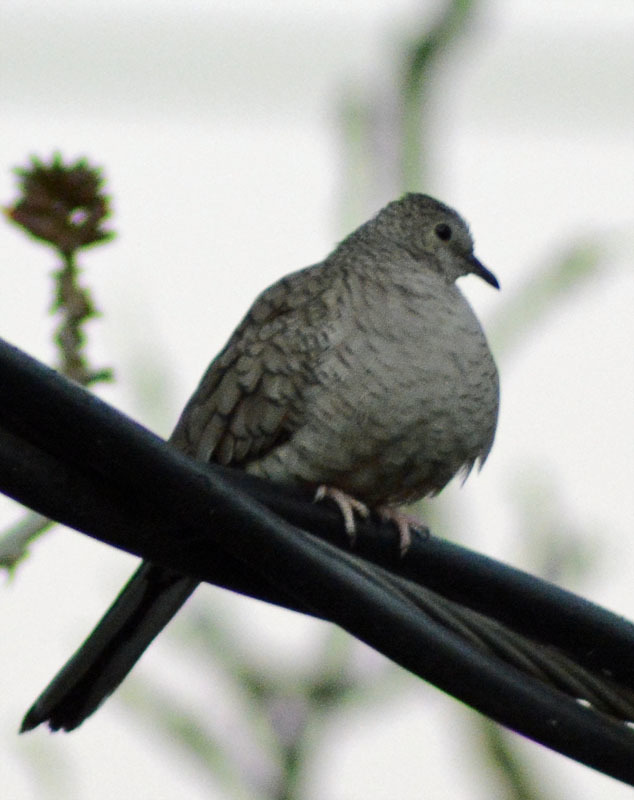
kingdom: Animalia
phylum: Chordata
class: Aves
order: Columbiformes
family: Columbidae
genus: Columbina
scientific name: Columbina inca
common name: Inca dove
